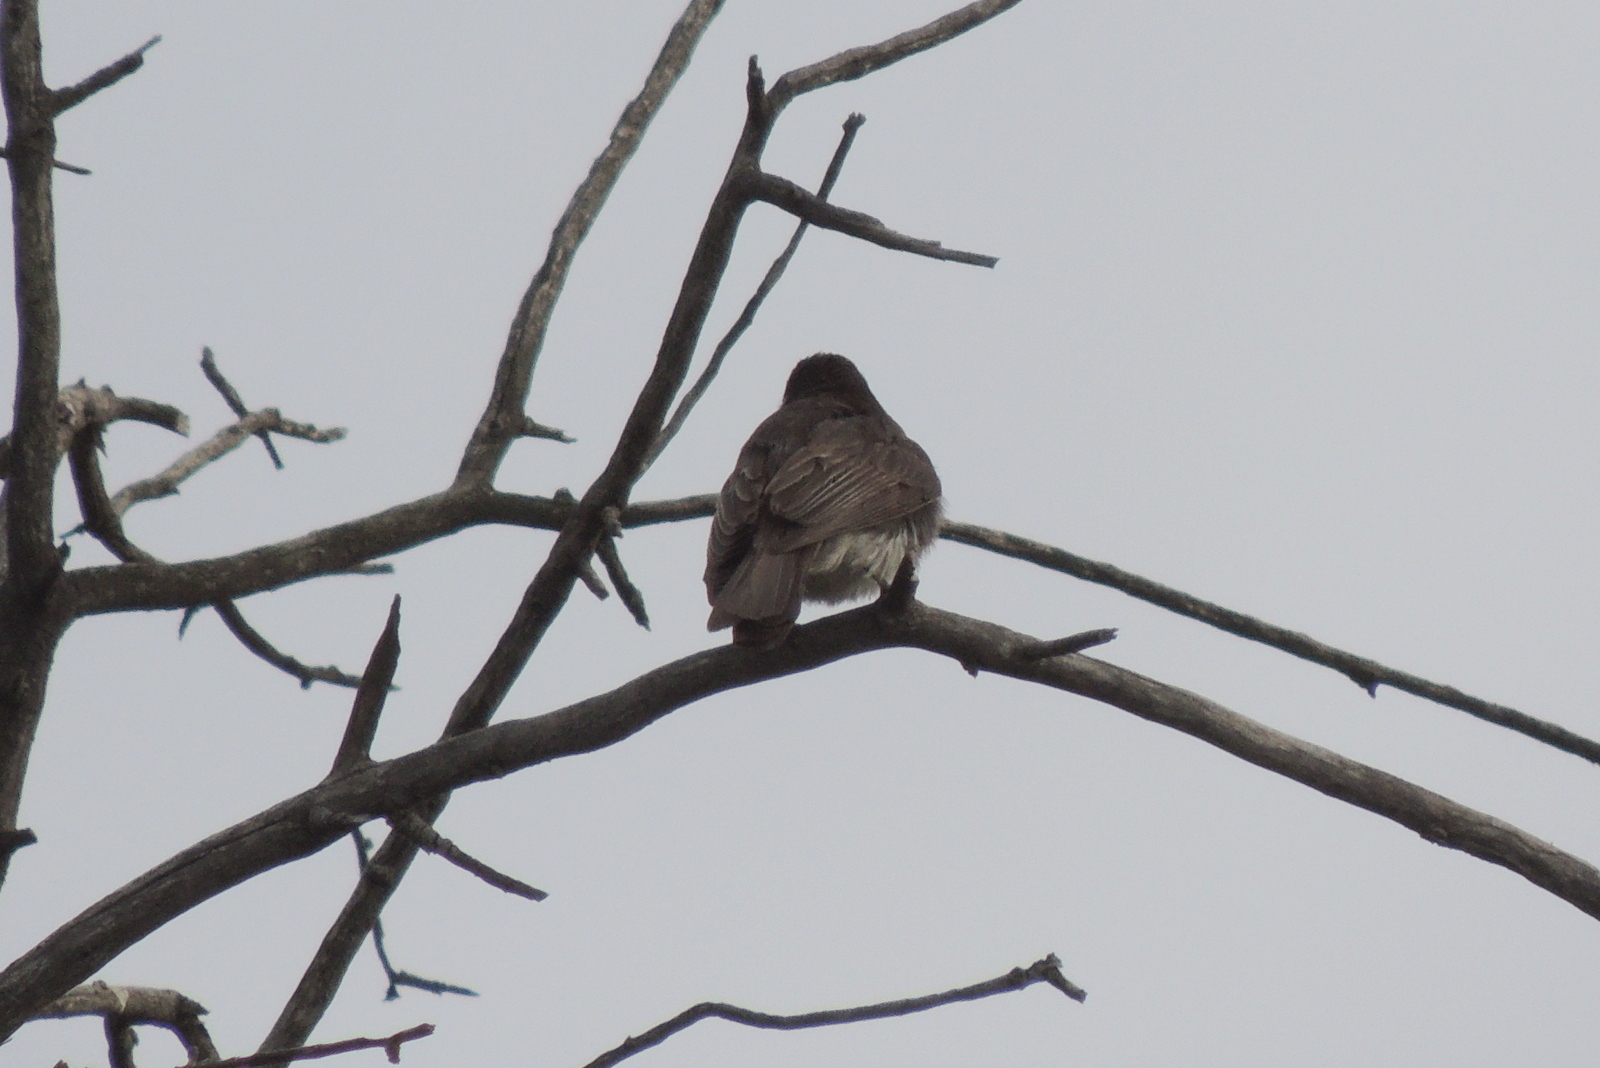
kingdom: Animalia
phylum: Chordata
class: Aves
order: Passeriformes
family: Tyrannidae
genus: Sayornis
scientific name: Sayornis nigricans
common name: Black phoebe
